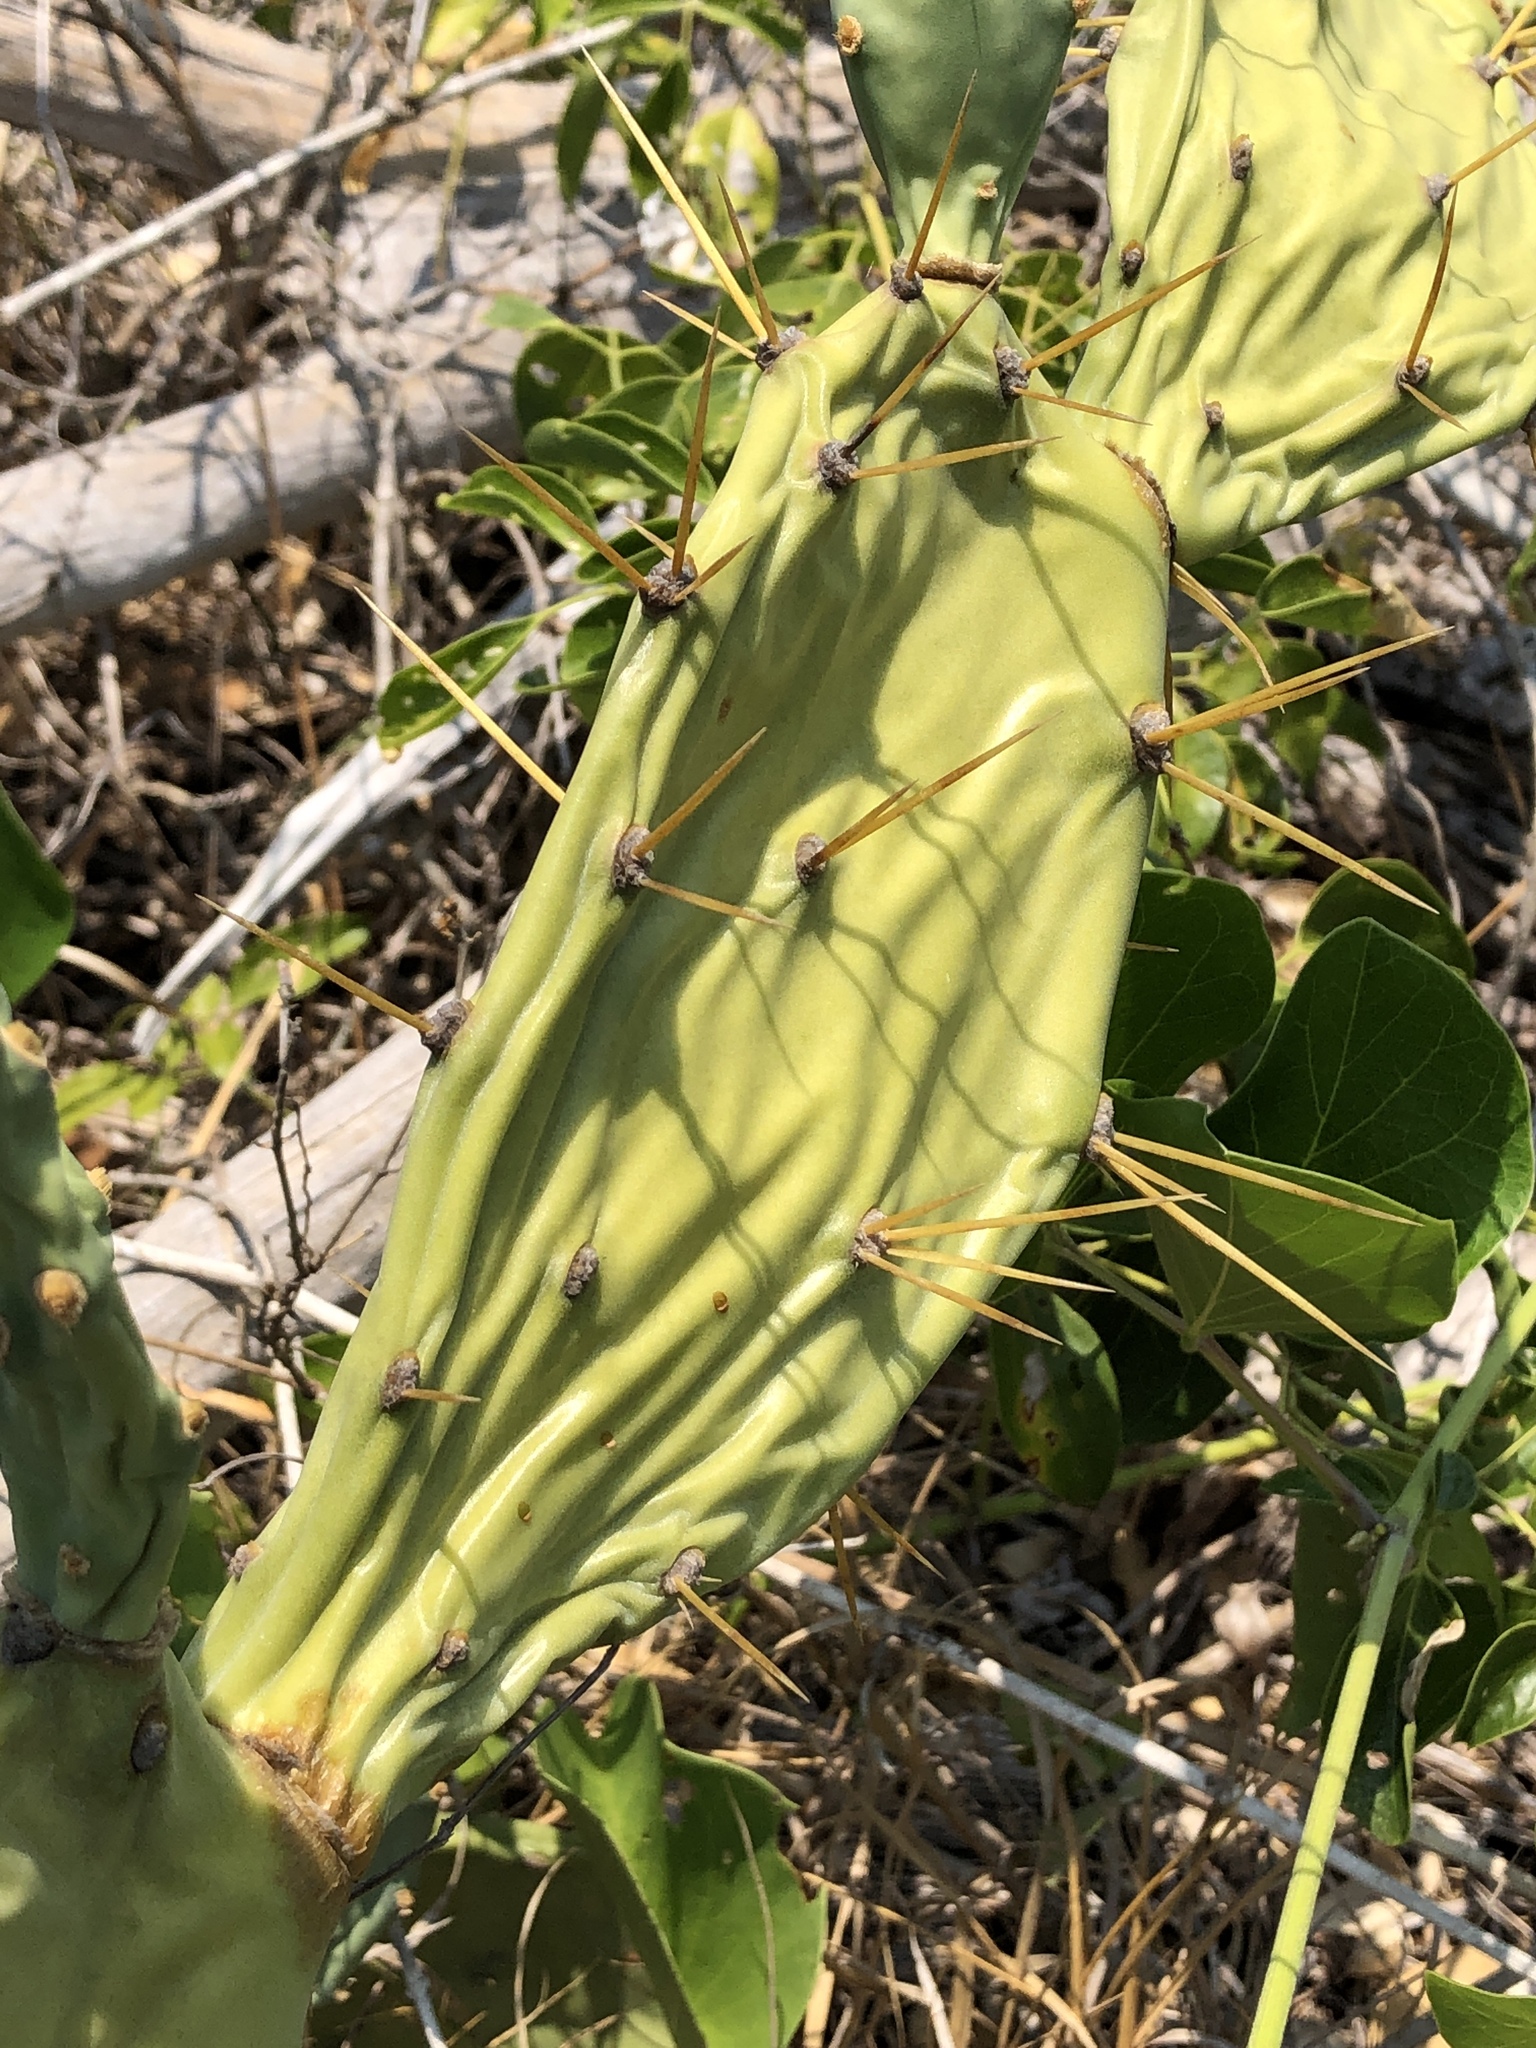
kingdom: Plantae
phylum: Tracheophyta
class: Magnoliopsida
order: Caryophyllales
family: Cactaceae
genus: Opuntia
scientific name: Opuntia stricta
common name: Erect pricklypear
